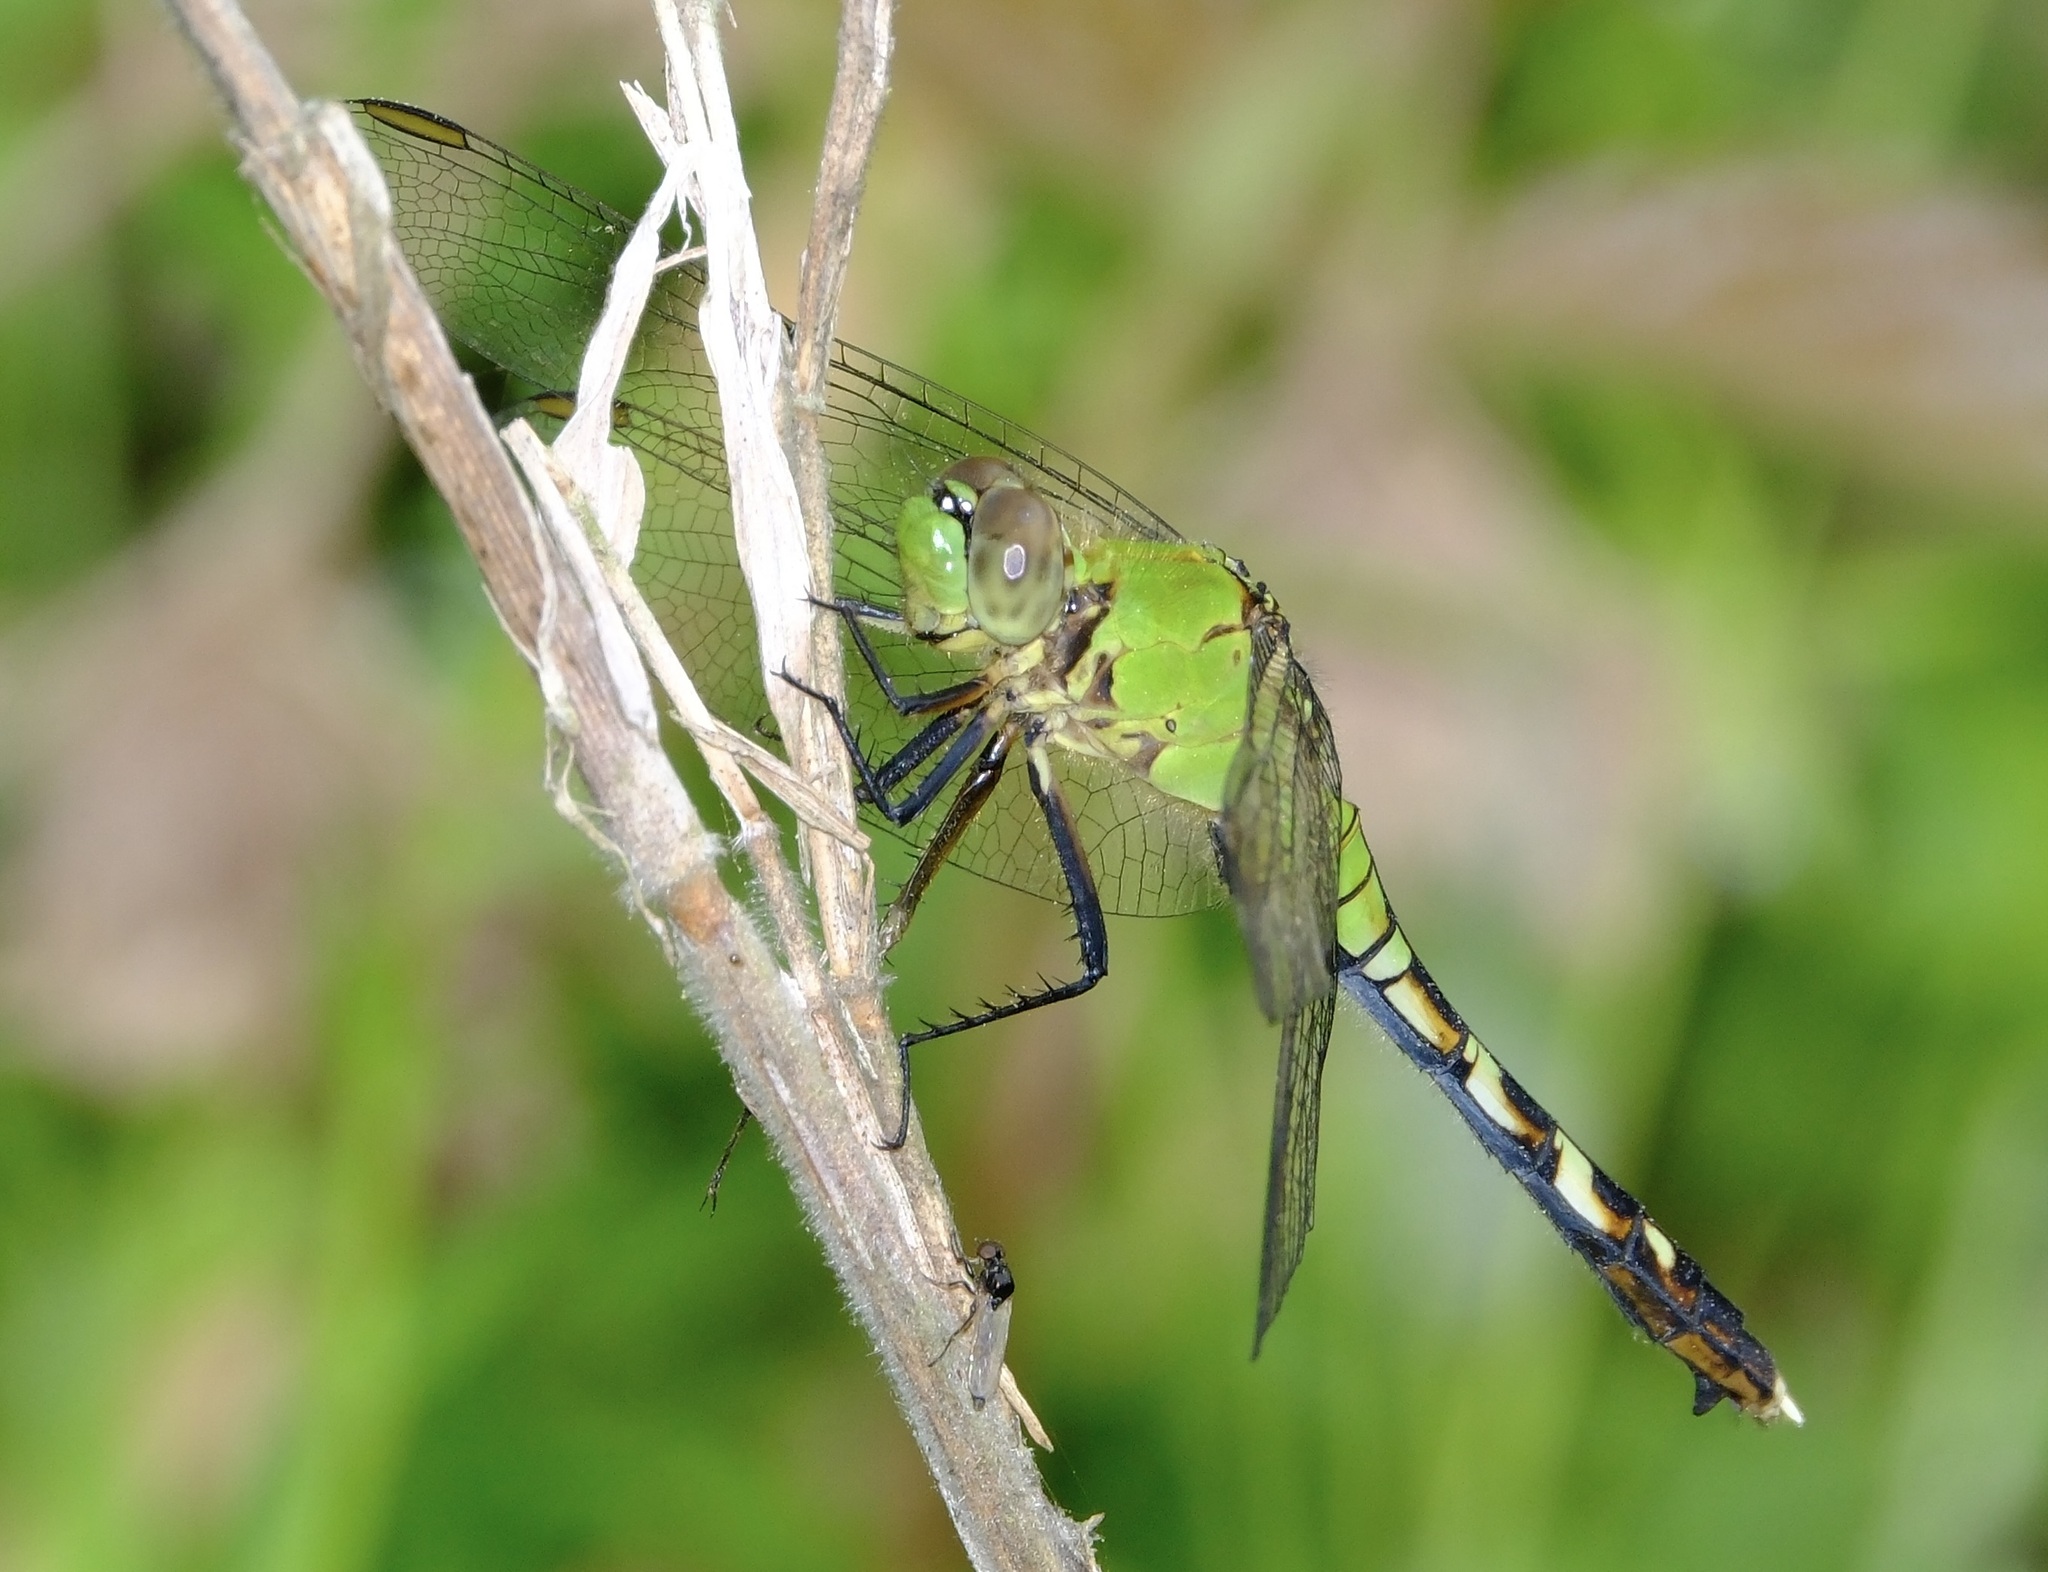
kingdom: Animalia
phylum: Arthropoda
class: Insecta
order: Odonata
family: Libellulidae
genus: Erythemis
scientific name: Erythemis simplicicollis
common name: Eastern pondhawk
